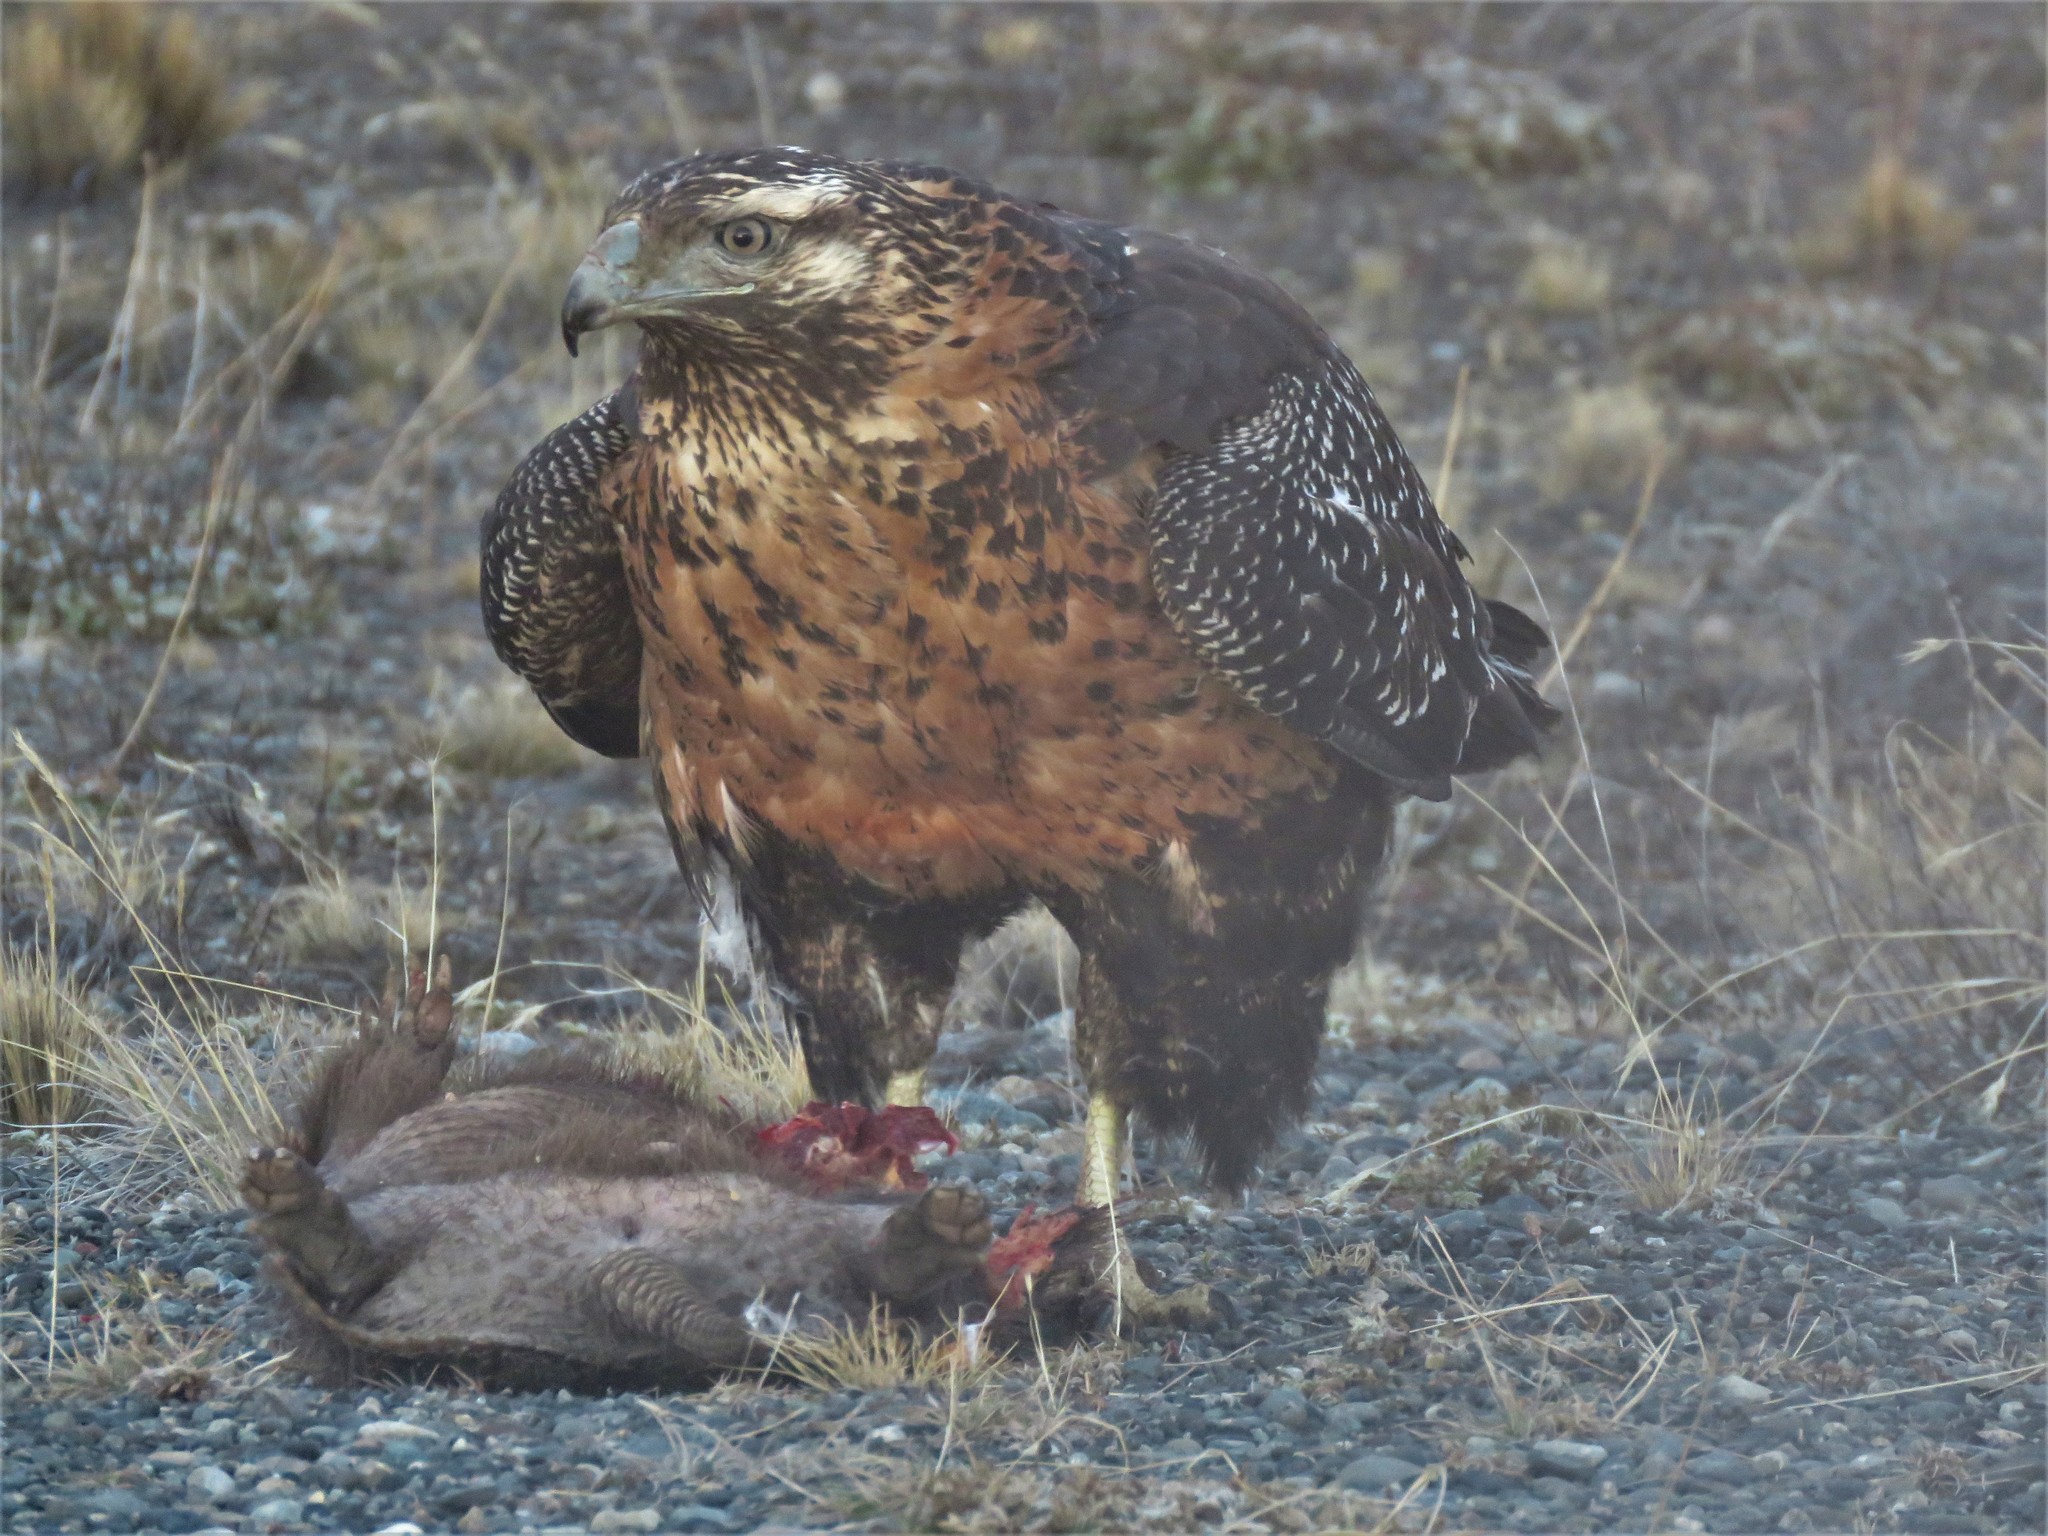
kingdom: Animalia
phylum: Chordata
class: Aves
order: Accipitriformes
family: Accipitridae
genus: Geranoaetus
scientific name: Geranoaetus melanoleucus
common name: Black-chested buzzard-eagle
